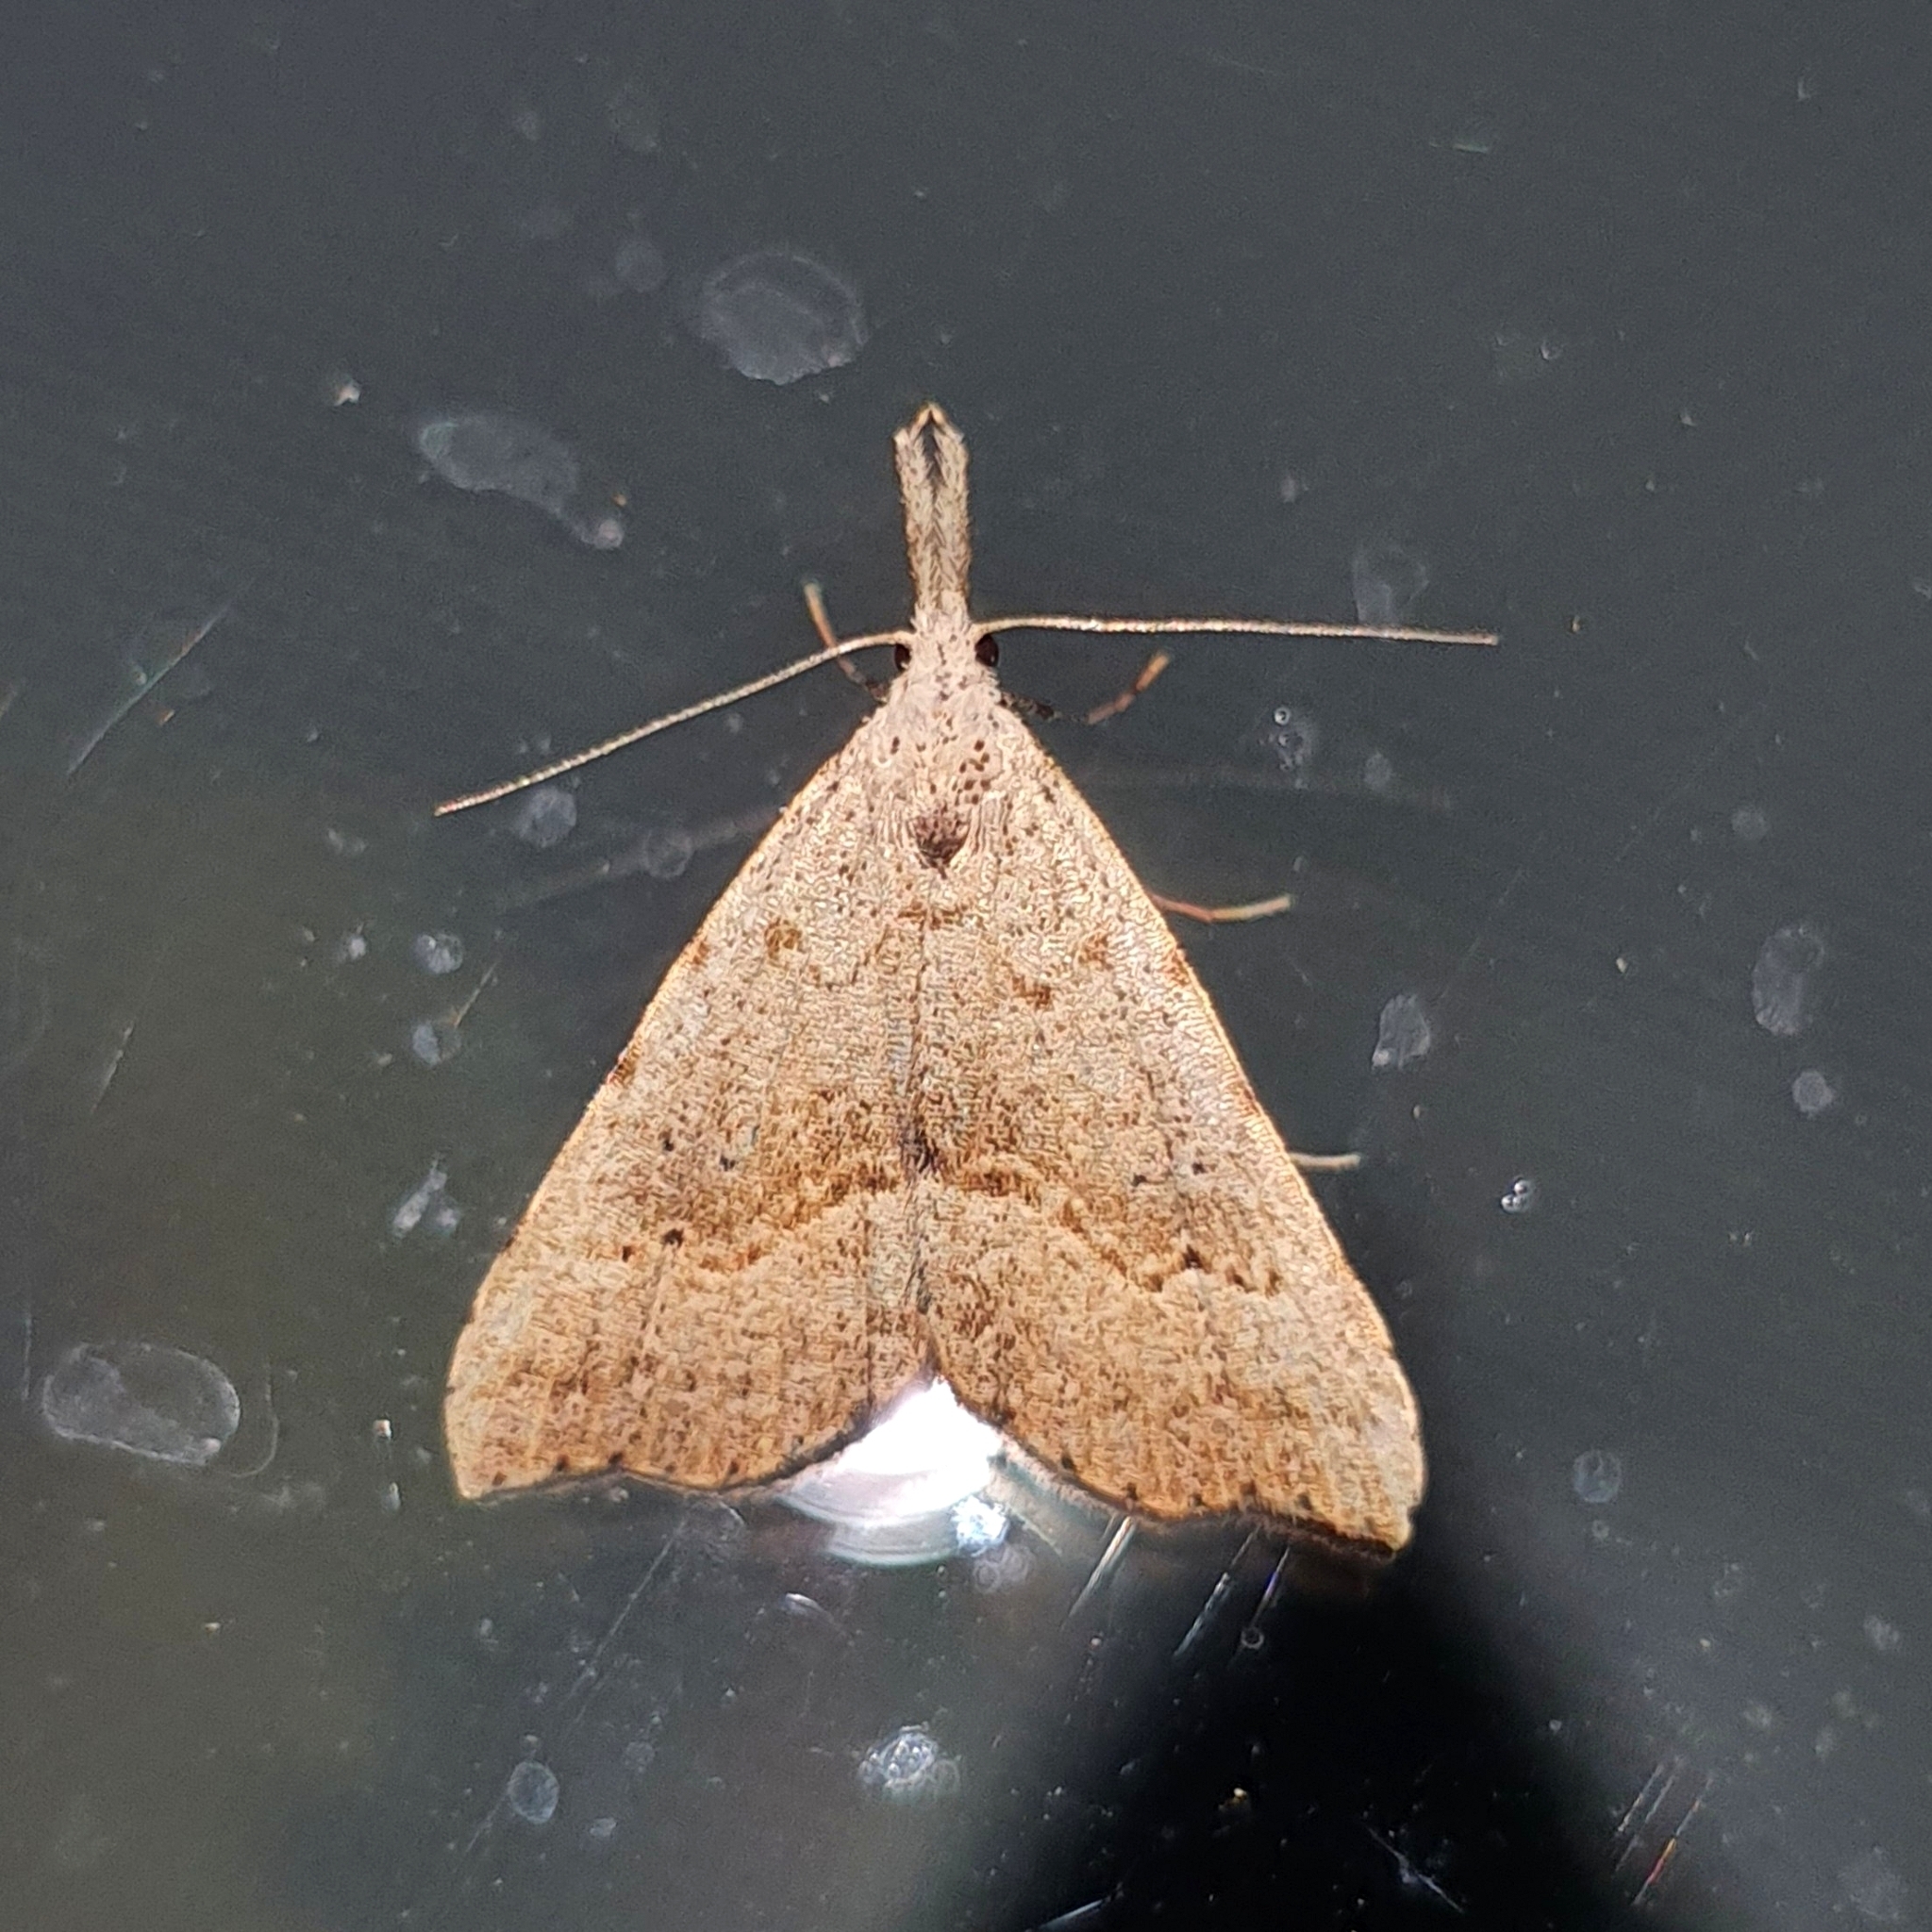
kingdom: Animalia
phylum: Arthropoda
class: Insecta
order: Lepidoptera
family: Erebidae
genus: Trigonistis
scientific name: Trigonistis asthenopa
